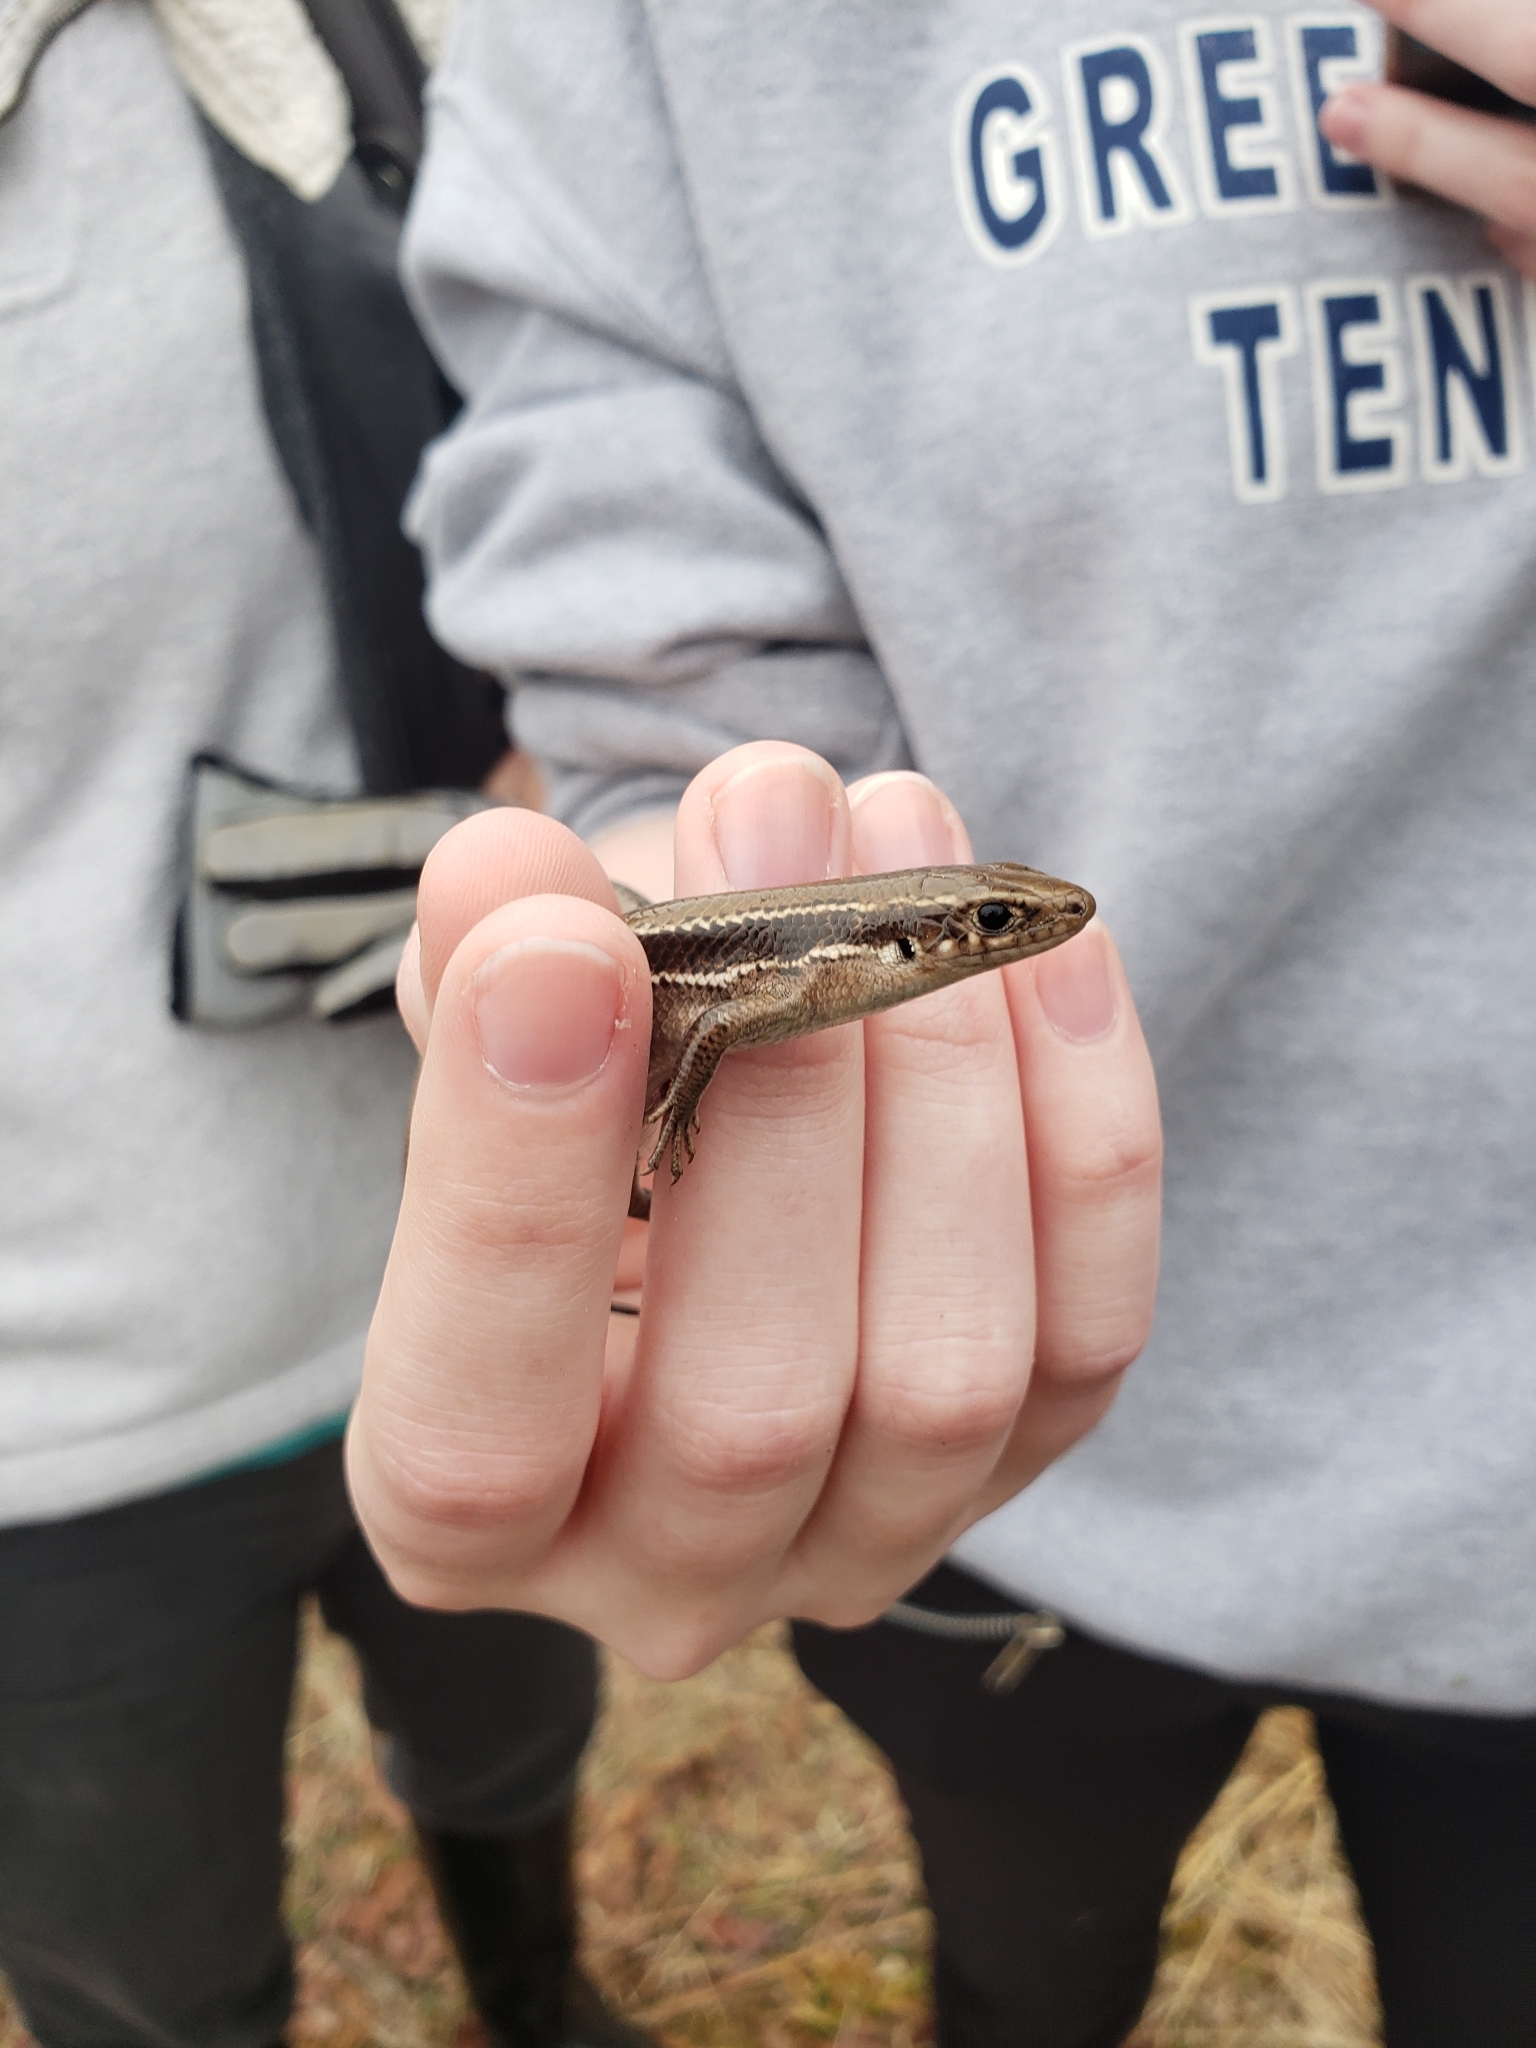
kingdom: Animalia
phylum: Chordata
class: Squamata
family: Scincidae
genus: Plestiodon
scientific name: Plestiodon anthracinus
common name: Coal skink
